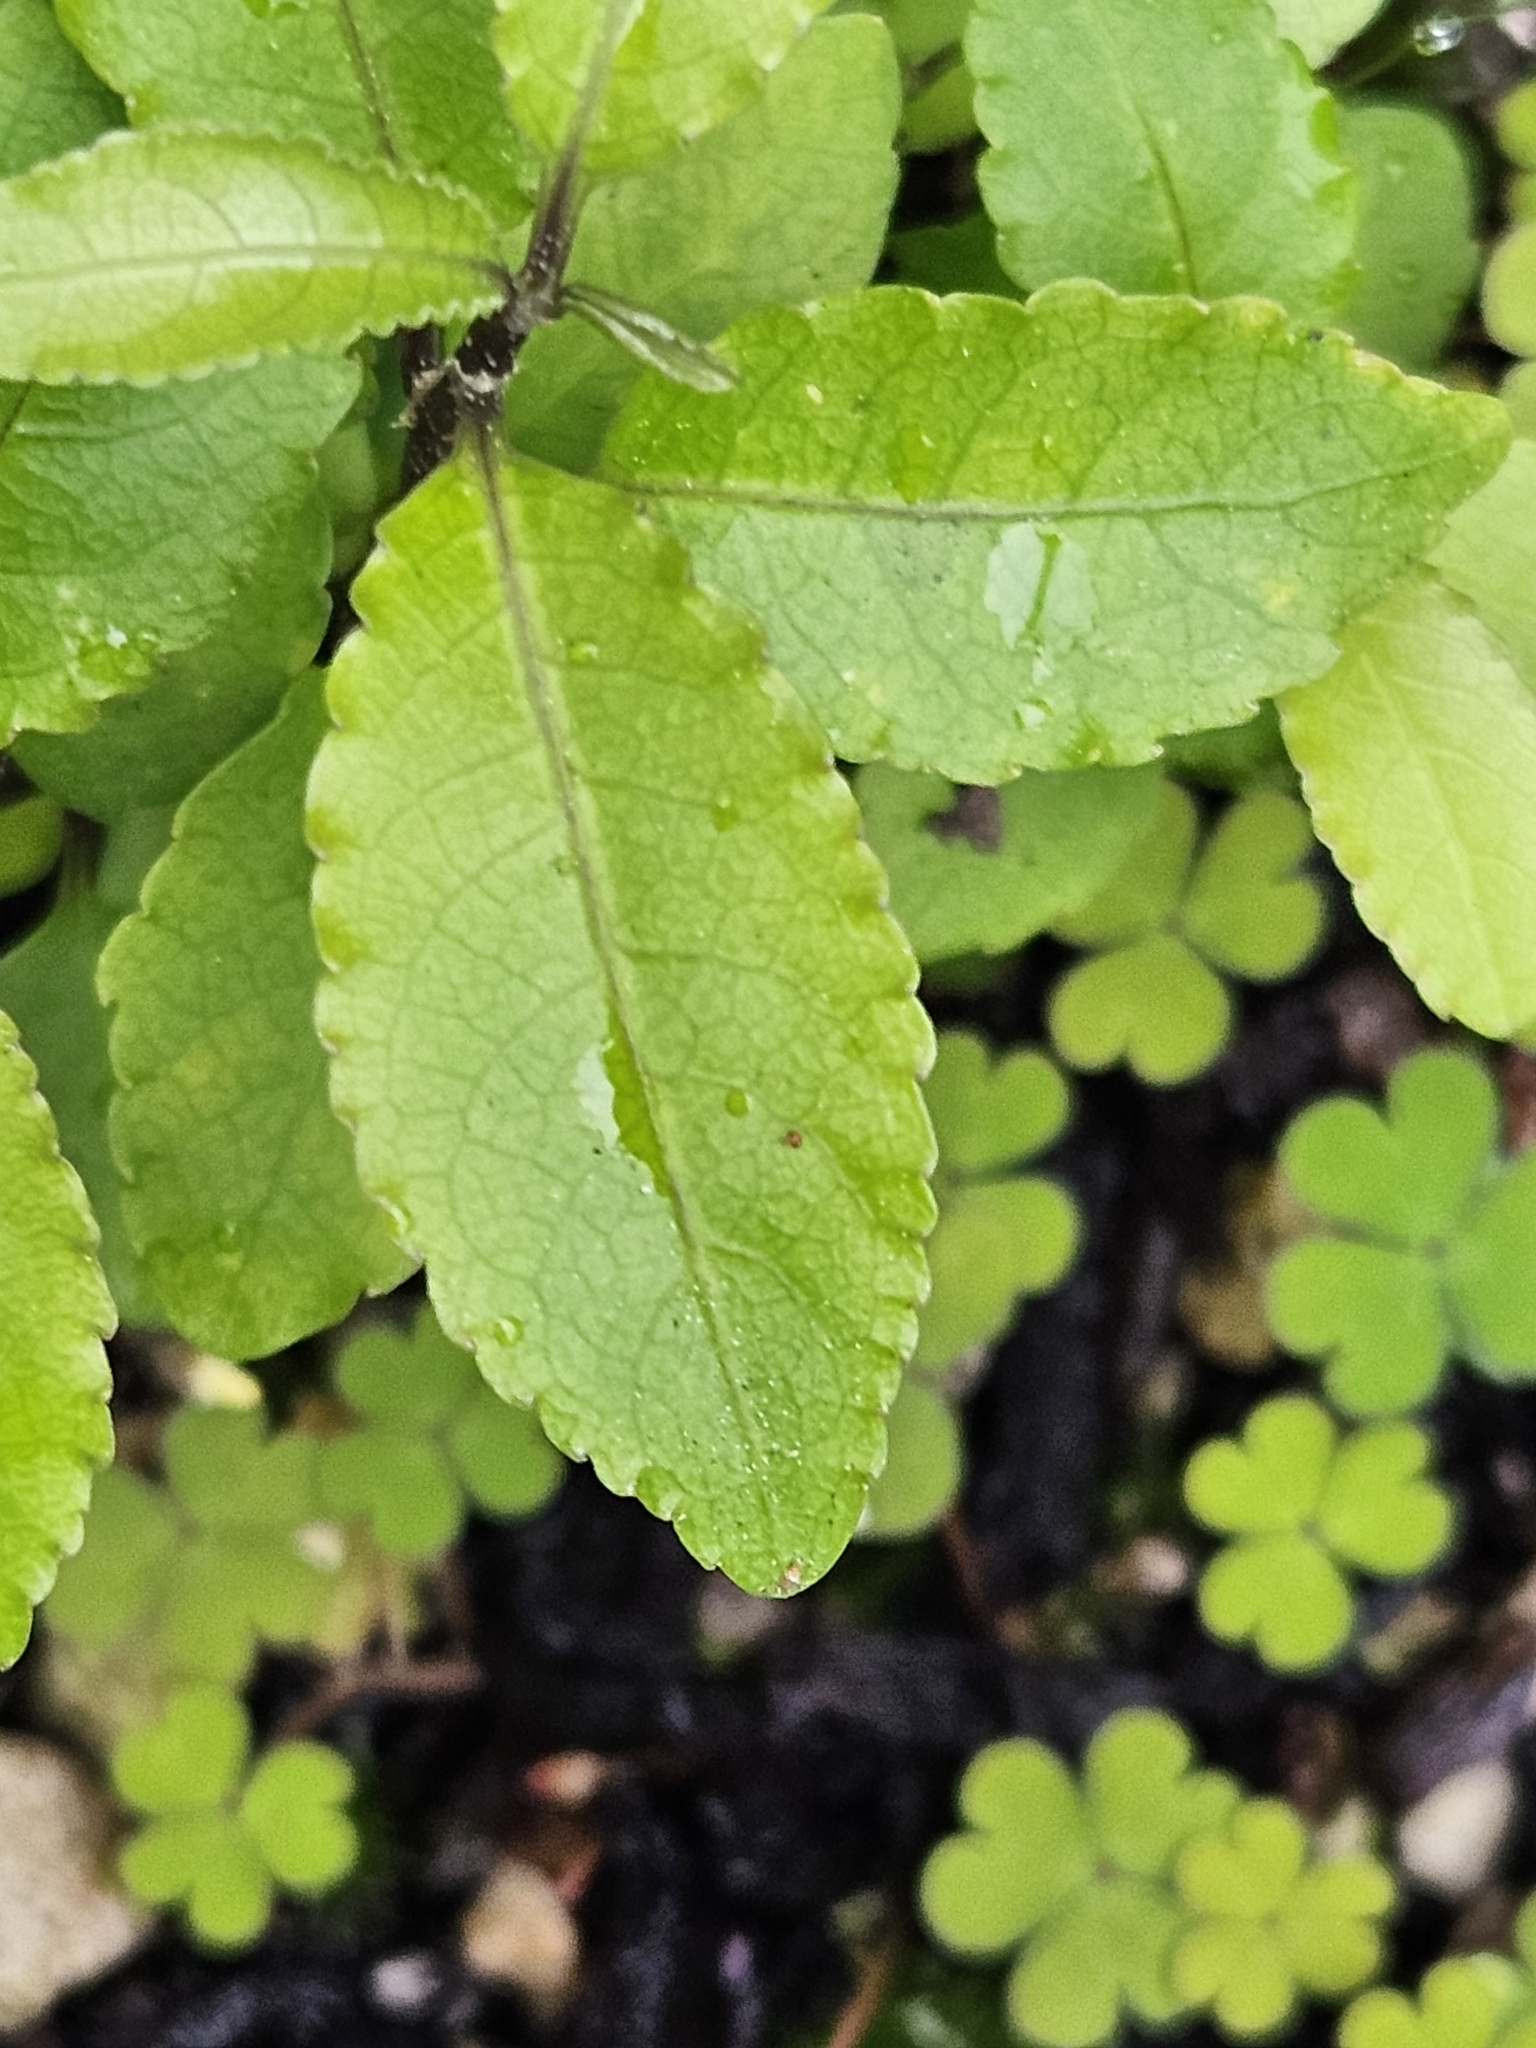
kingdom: Plantae
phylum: Tracheophyta
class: Magnoliopsida
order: Malpighiales
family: Violaceae
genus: Melicytus
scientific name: Melicytus ramiflorus
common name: Mahoe
